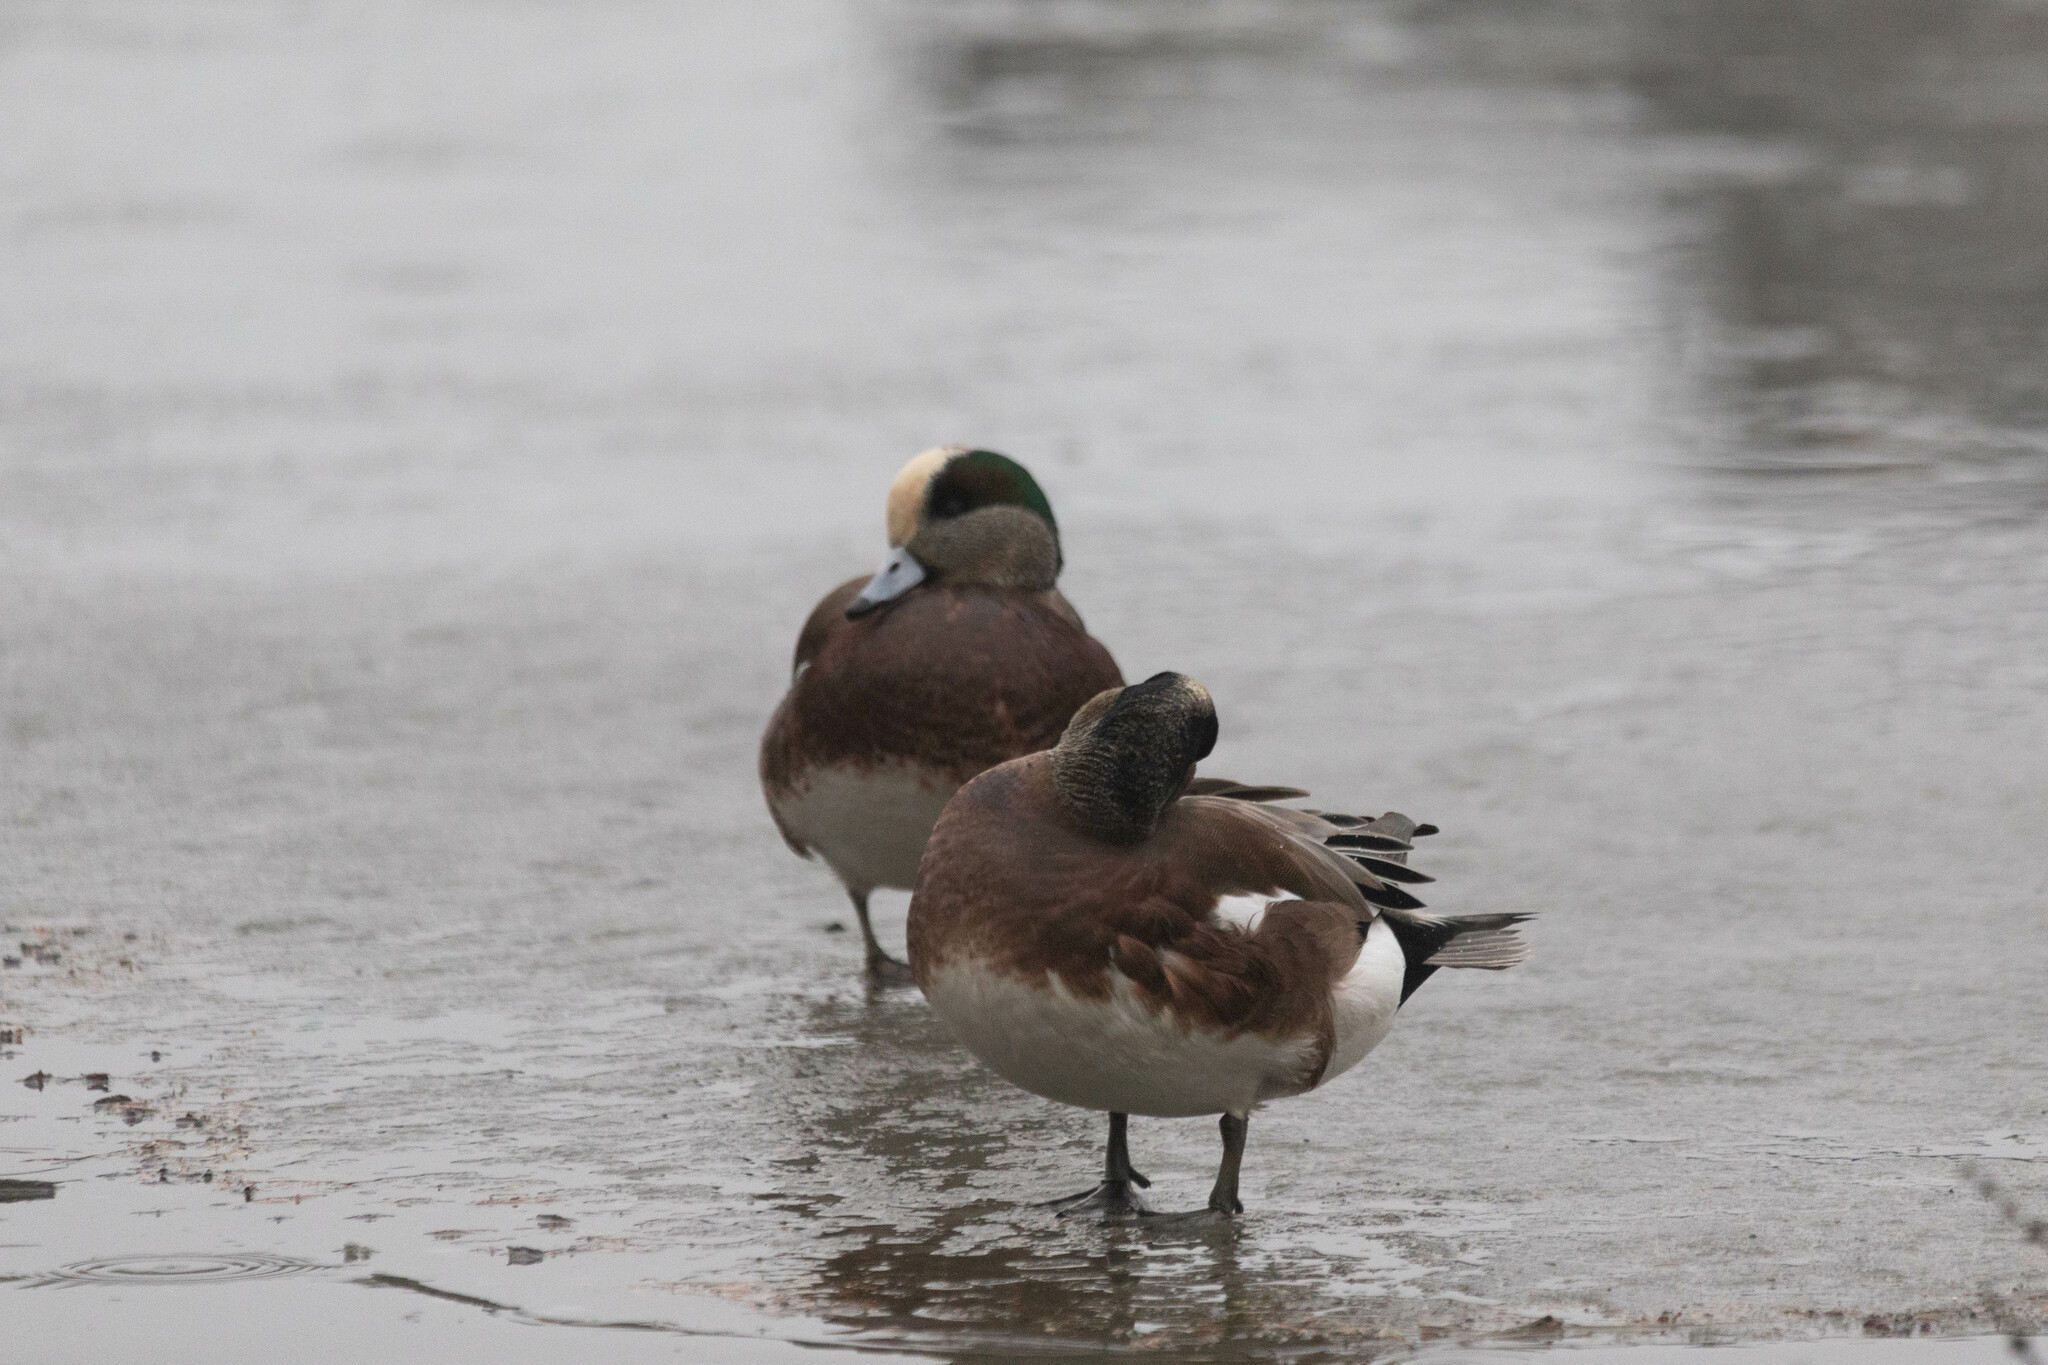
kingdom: Animalia
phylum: Chordata
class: Aves
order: Anseriformes
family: Anatidae
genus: Mareca
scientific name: Mareca americana
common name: American wigeon
